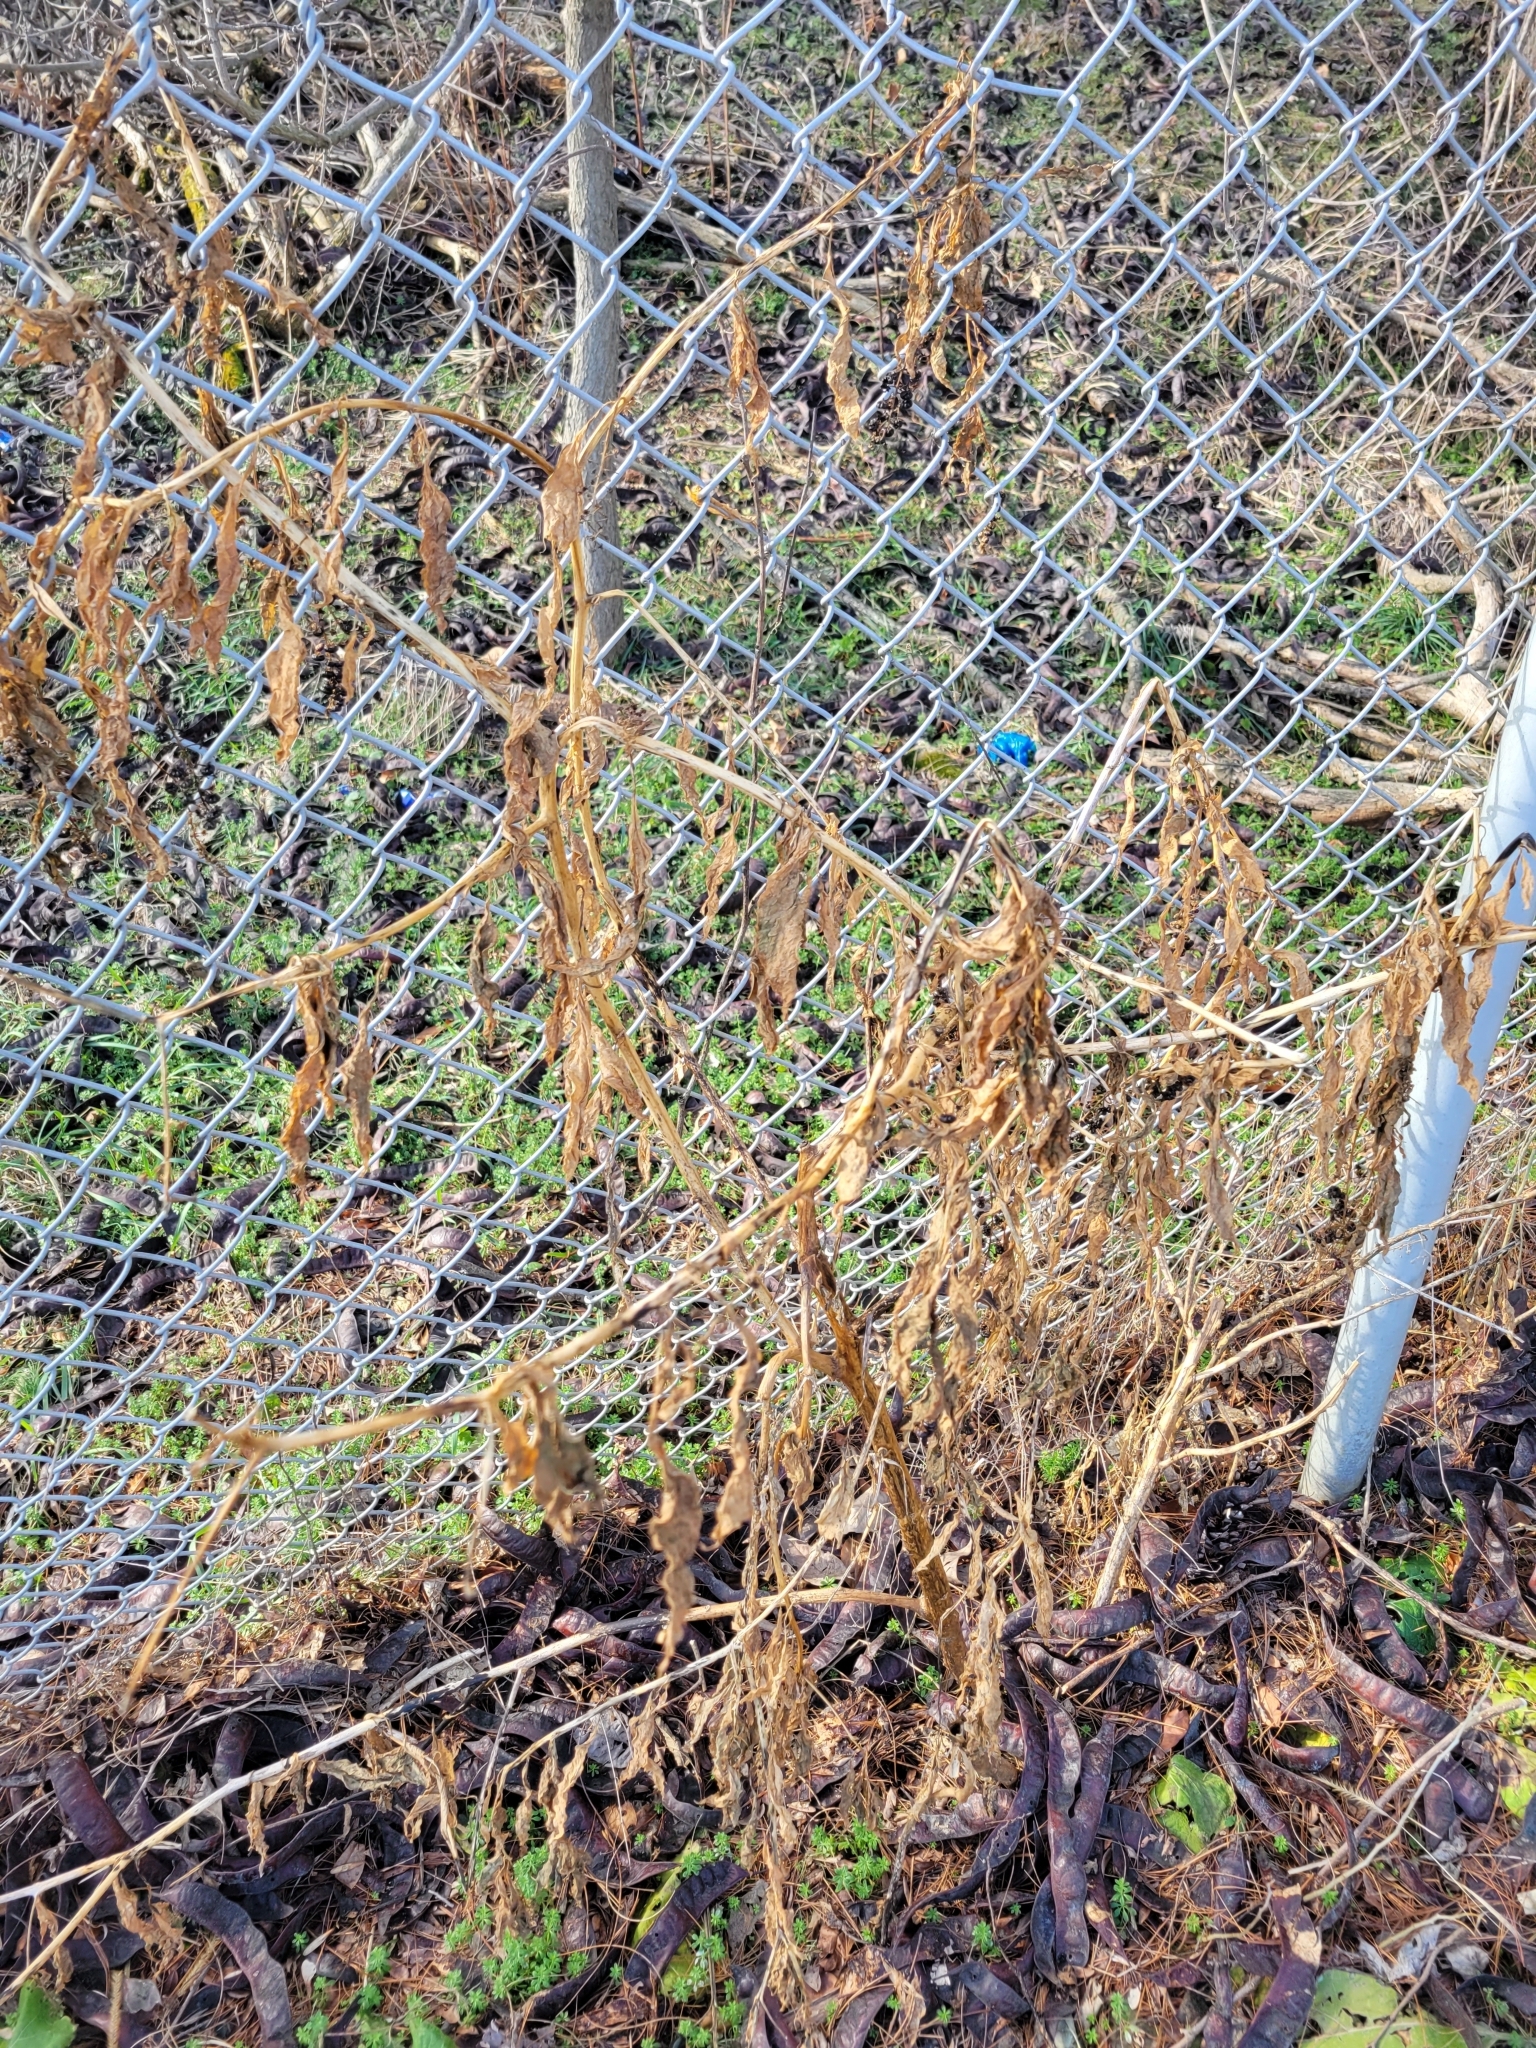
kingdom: Plantae
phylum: Tracheophyta
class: Magnoliopsida
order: Caryophyllales
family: Phytolaccaceae
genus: Phytolacca
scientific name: Phytolacca americana
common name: American pokeweed
